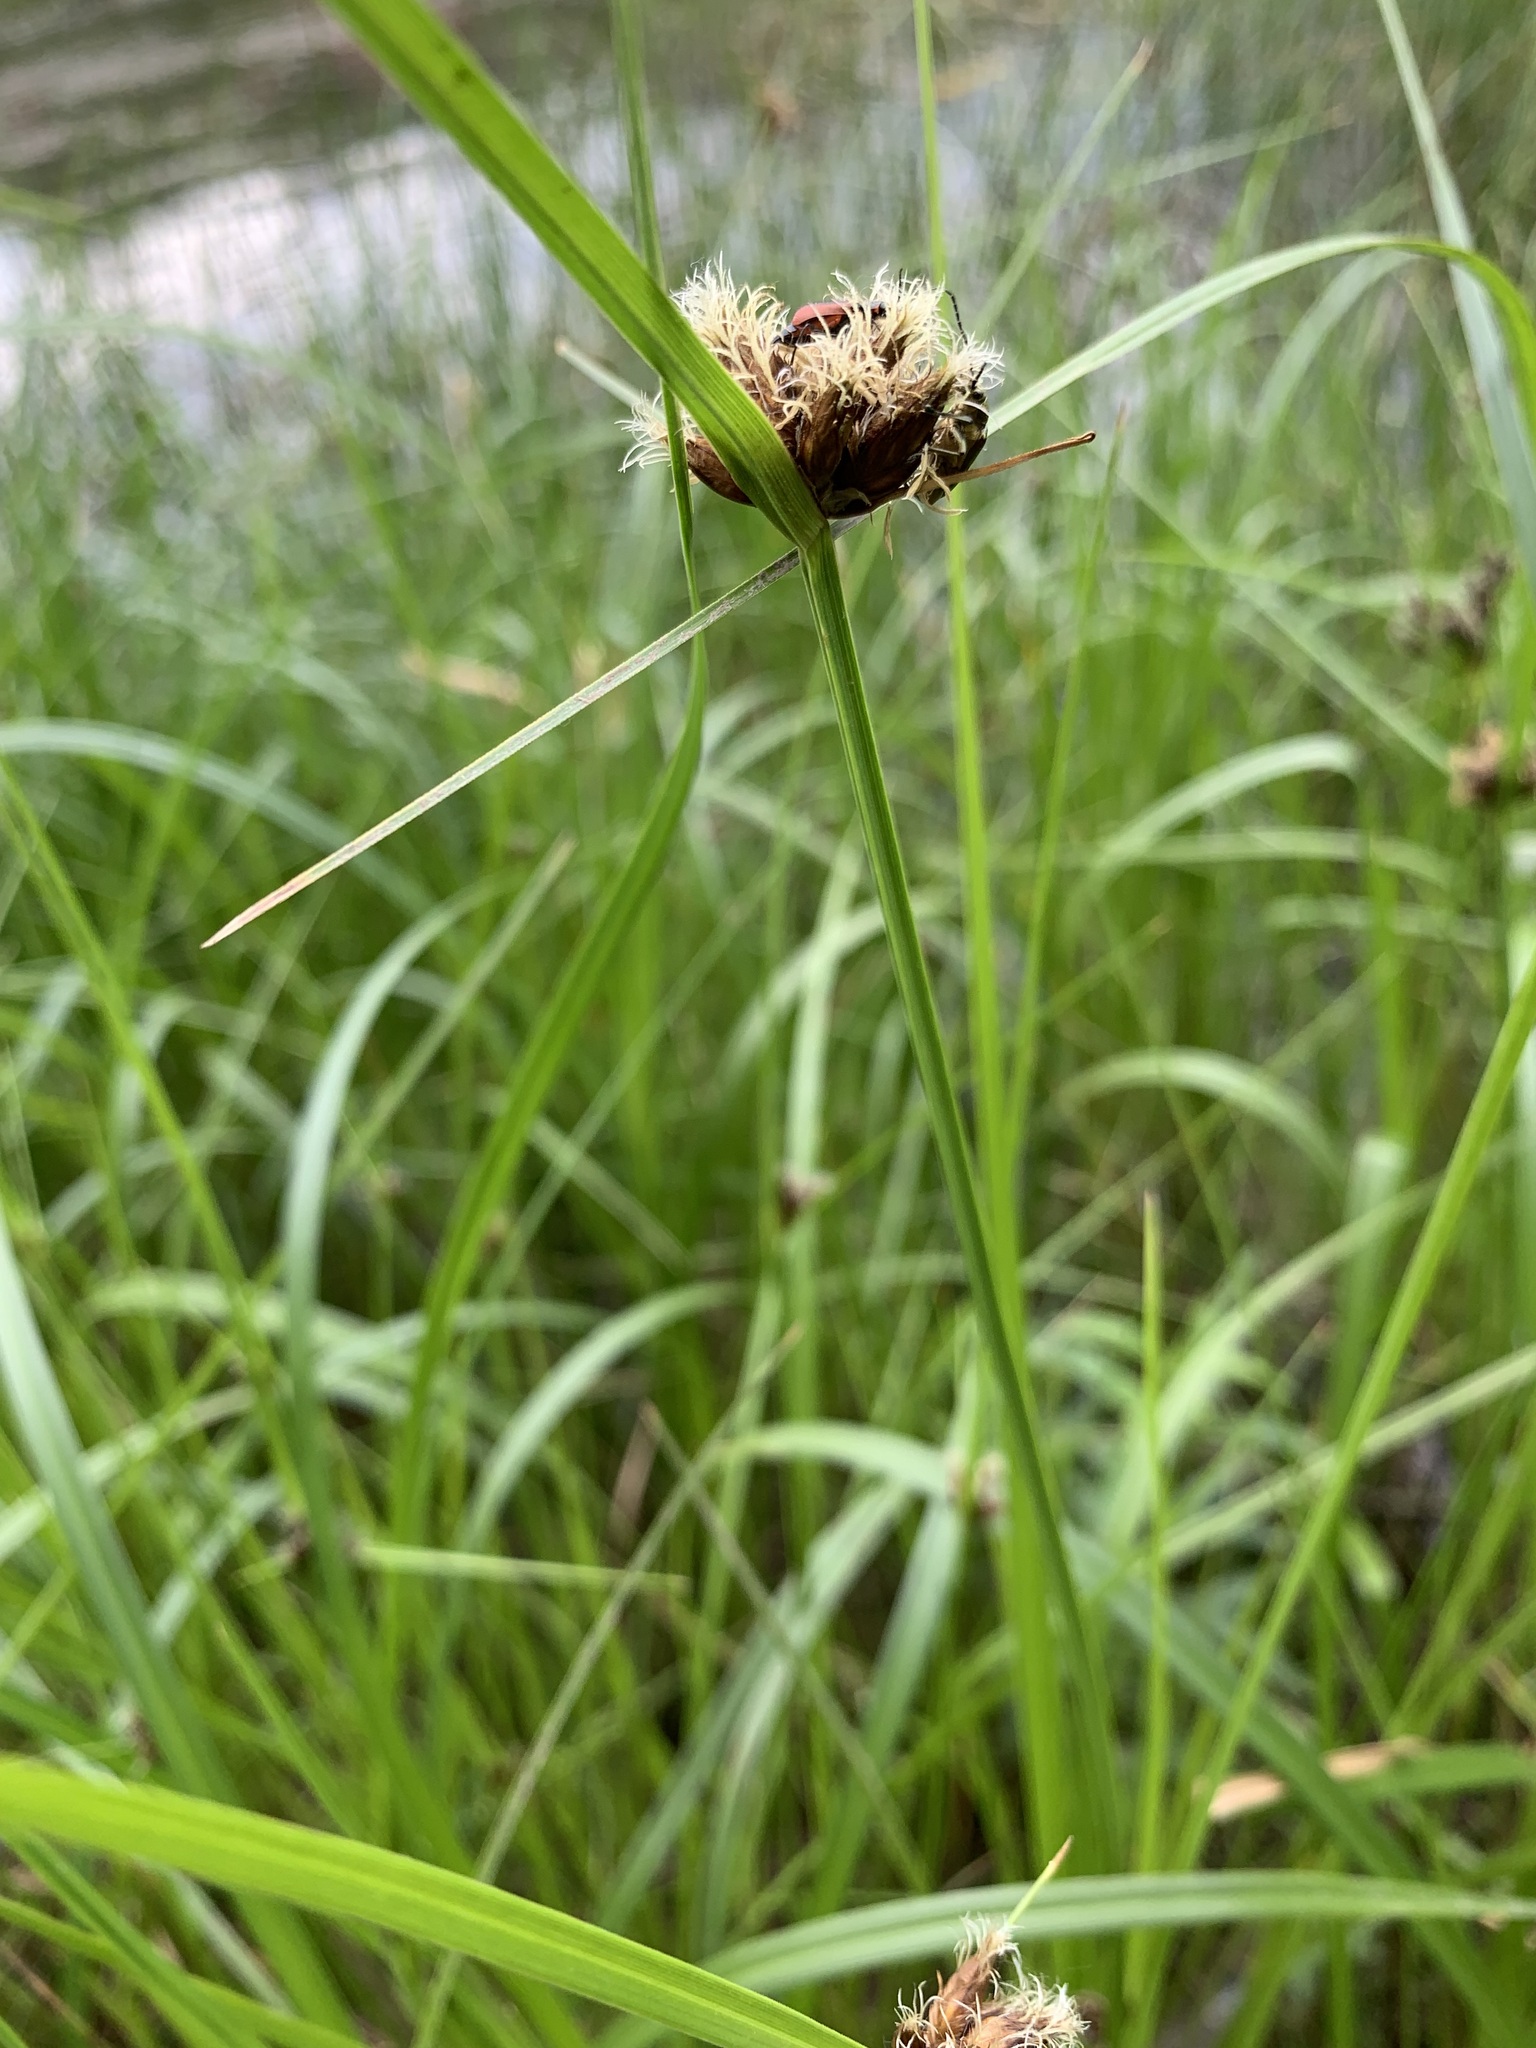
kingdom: Plantae
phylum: Tracheophyta
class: Liliopsida
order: Poales
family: Cyperaceae
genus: Bolboschoenus
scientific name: Bolboschoenus maritimus
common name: Sea club-rush
